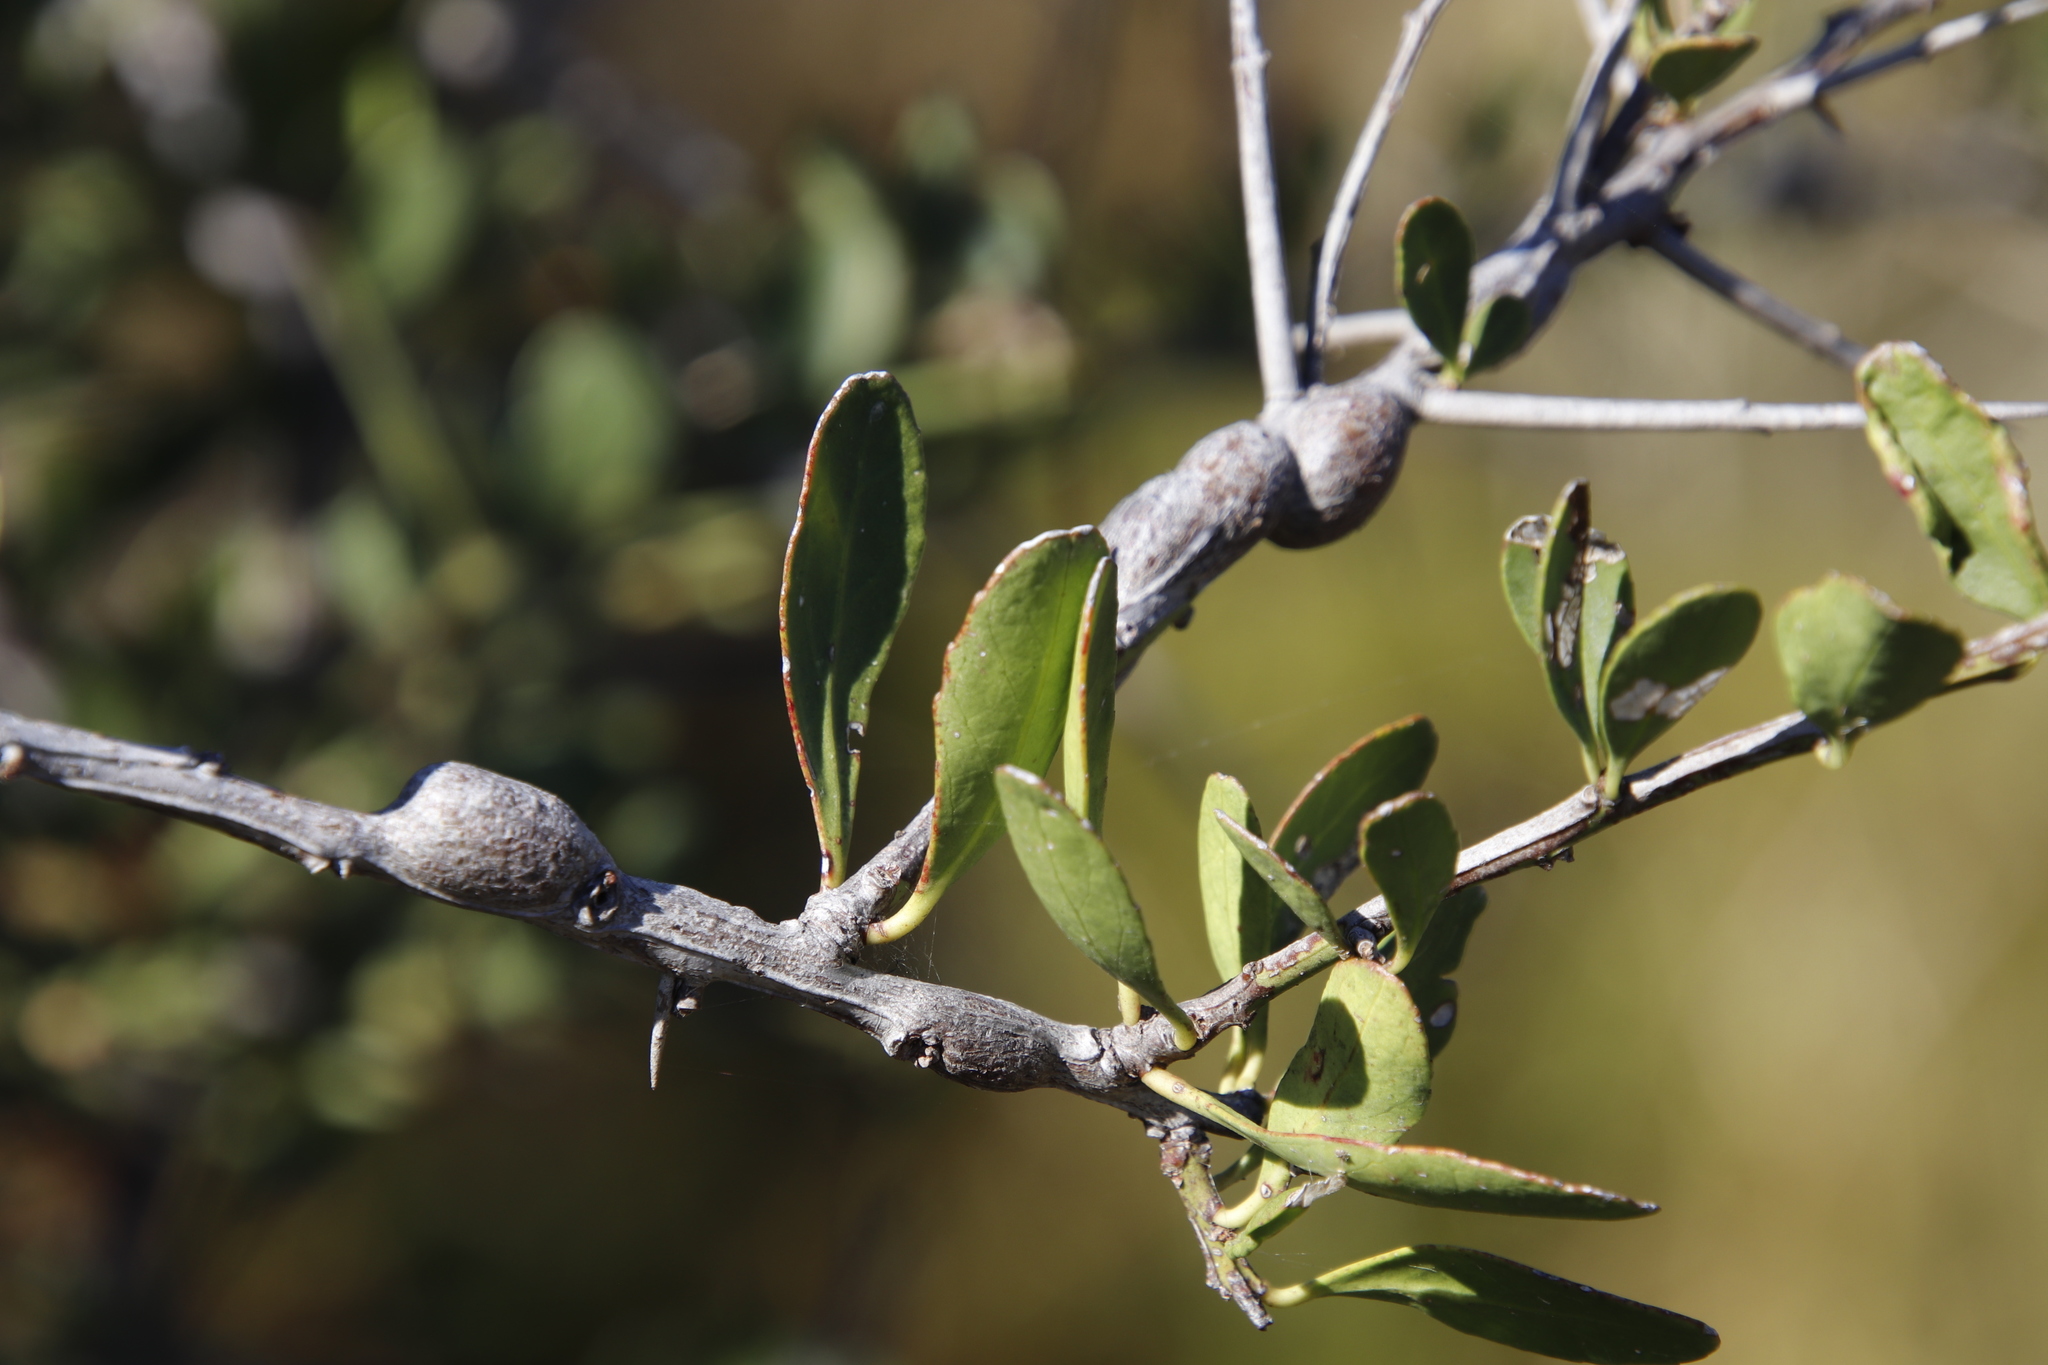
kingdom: Plantae
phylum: Tracheophyta
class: Magnoliopsida
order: Celastrales
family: Celastraceae
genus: Gymnosporia
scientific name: Gymnosporia buxifolia
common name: Common spike-thorn
